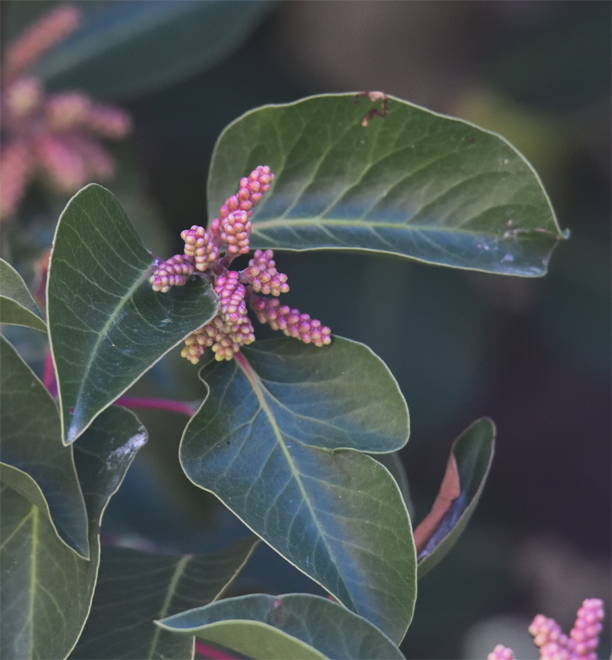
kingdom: Plantae
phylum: Tracheophyta
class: Magnoliopsida
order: Sapindales
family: Anacardiaceae
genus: Rhus
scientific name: Rhus ovata
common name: Sugar sumac
